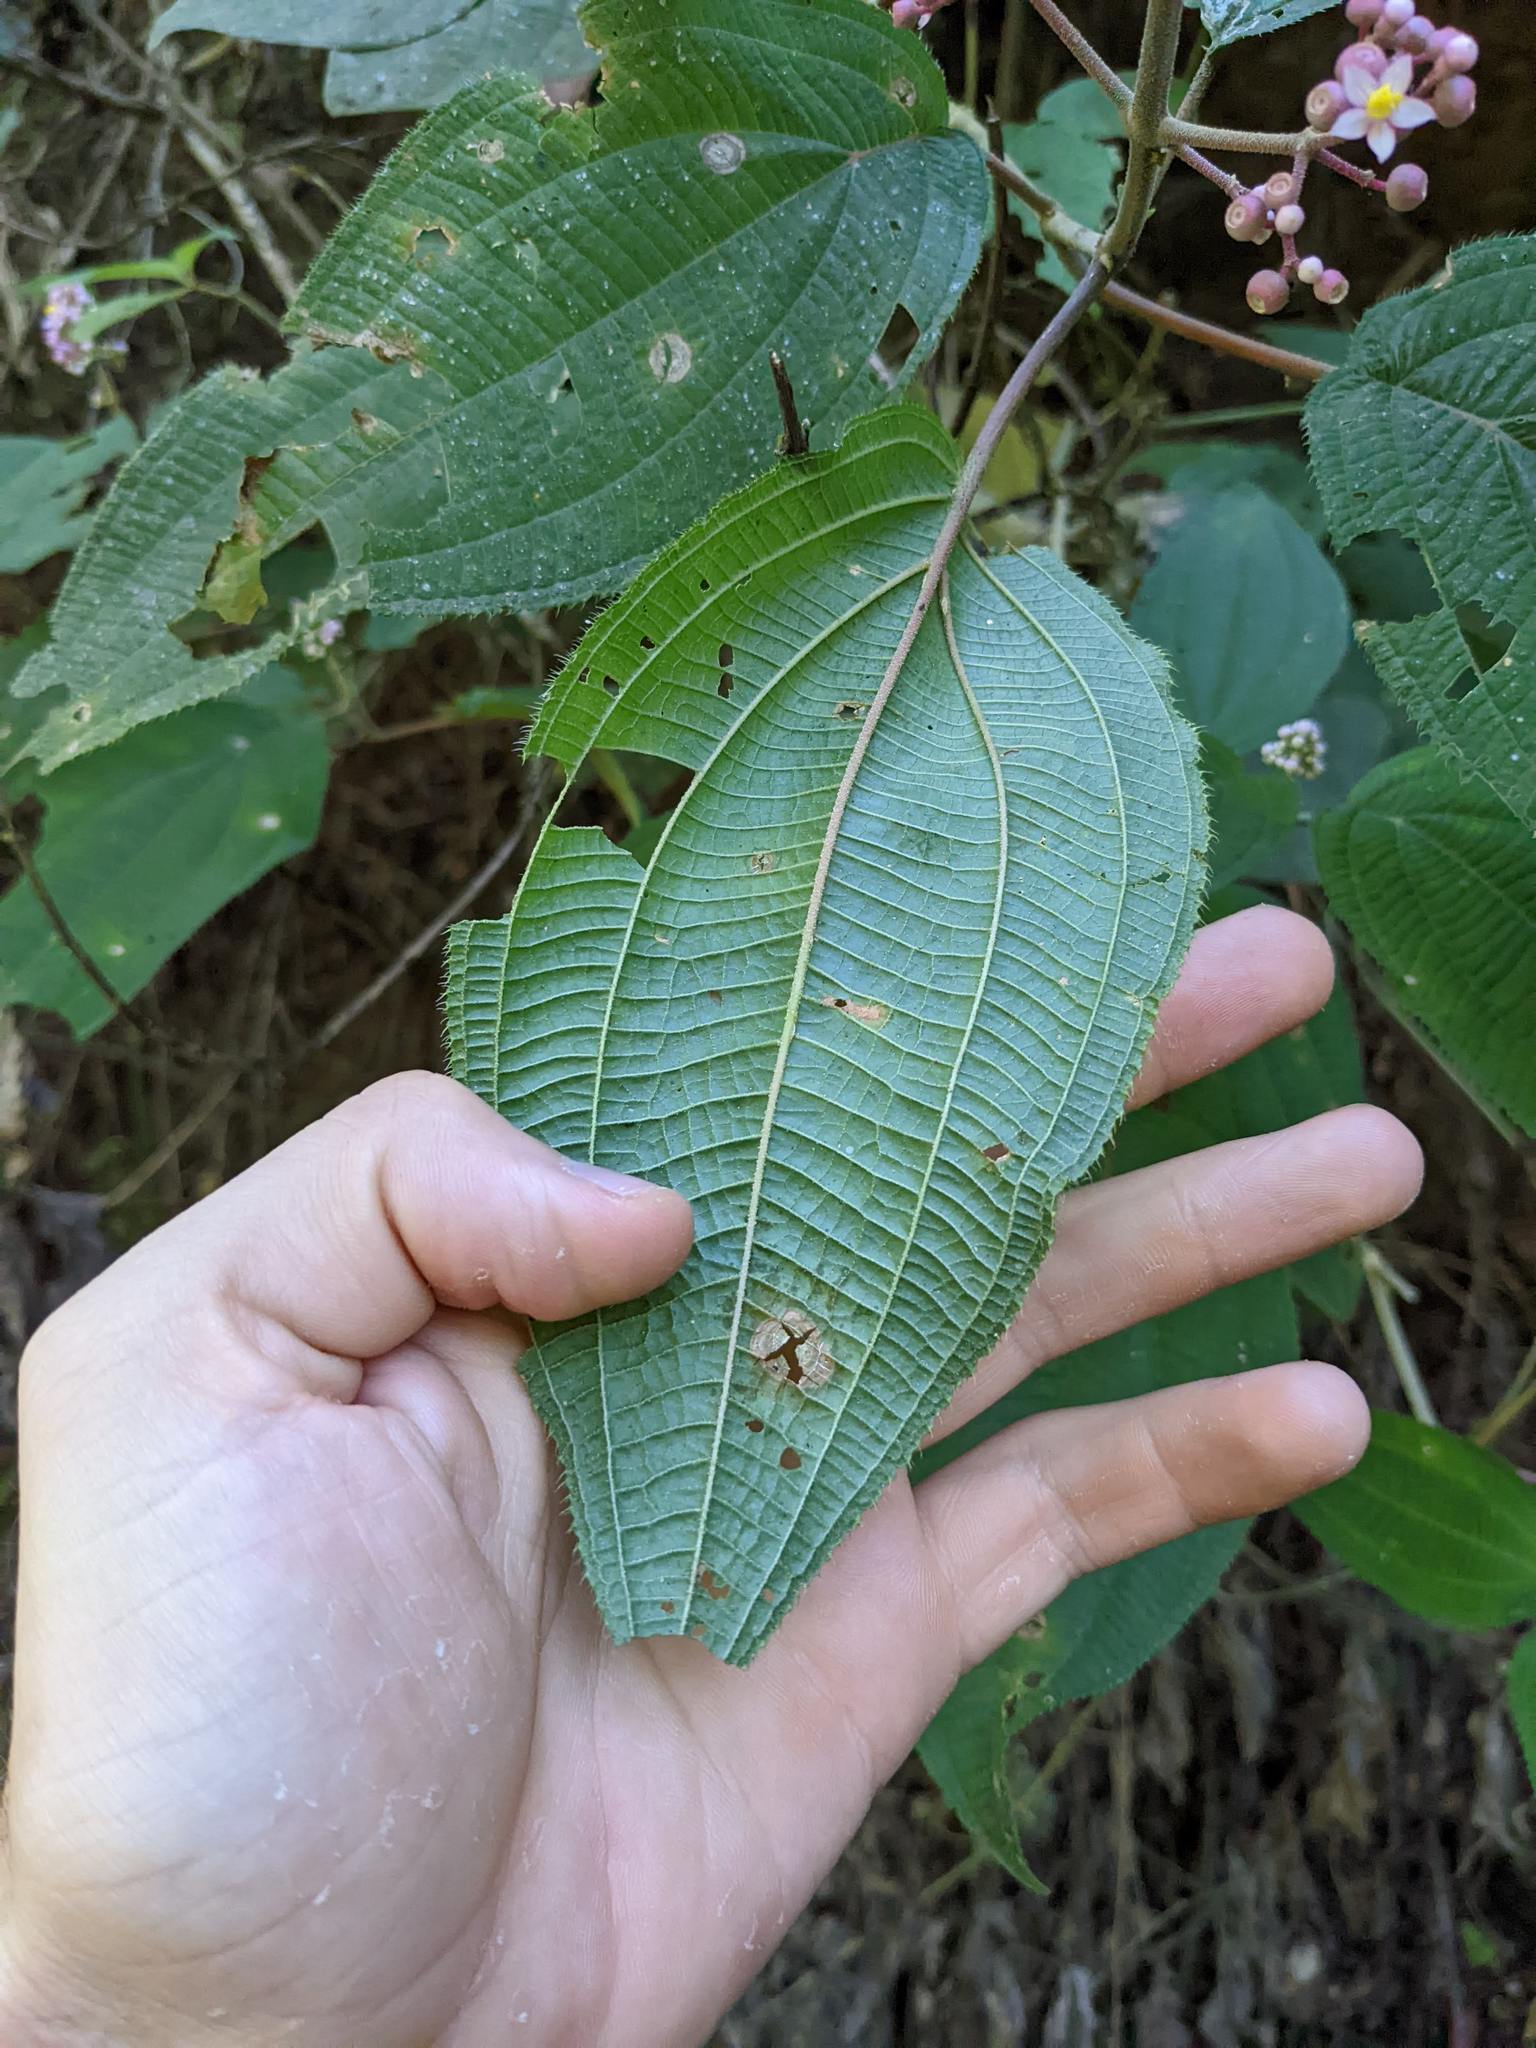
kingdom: Plantae
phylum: Tracheophyta
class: Magnoliopsida
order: Myrtales
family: Melastomataceae
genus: Miconia
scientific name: Miconia subcrustulata
